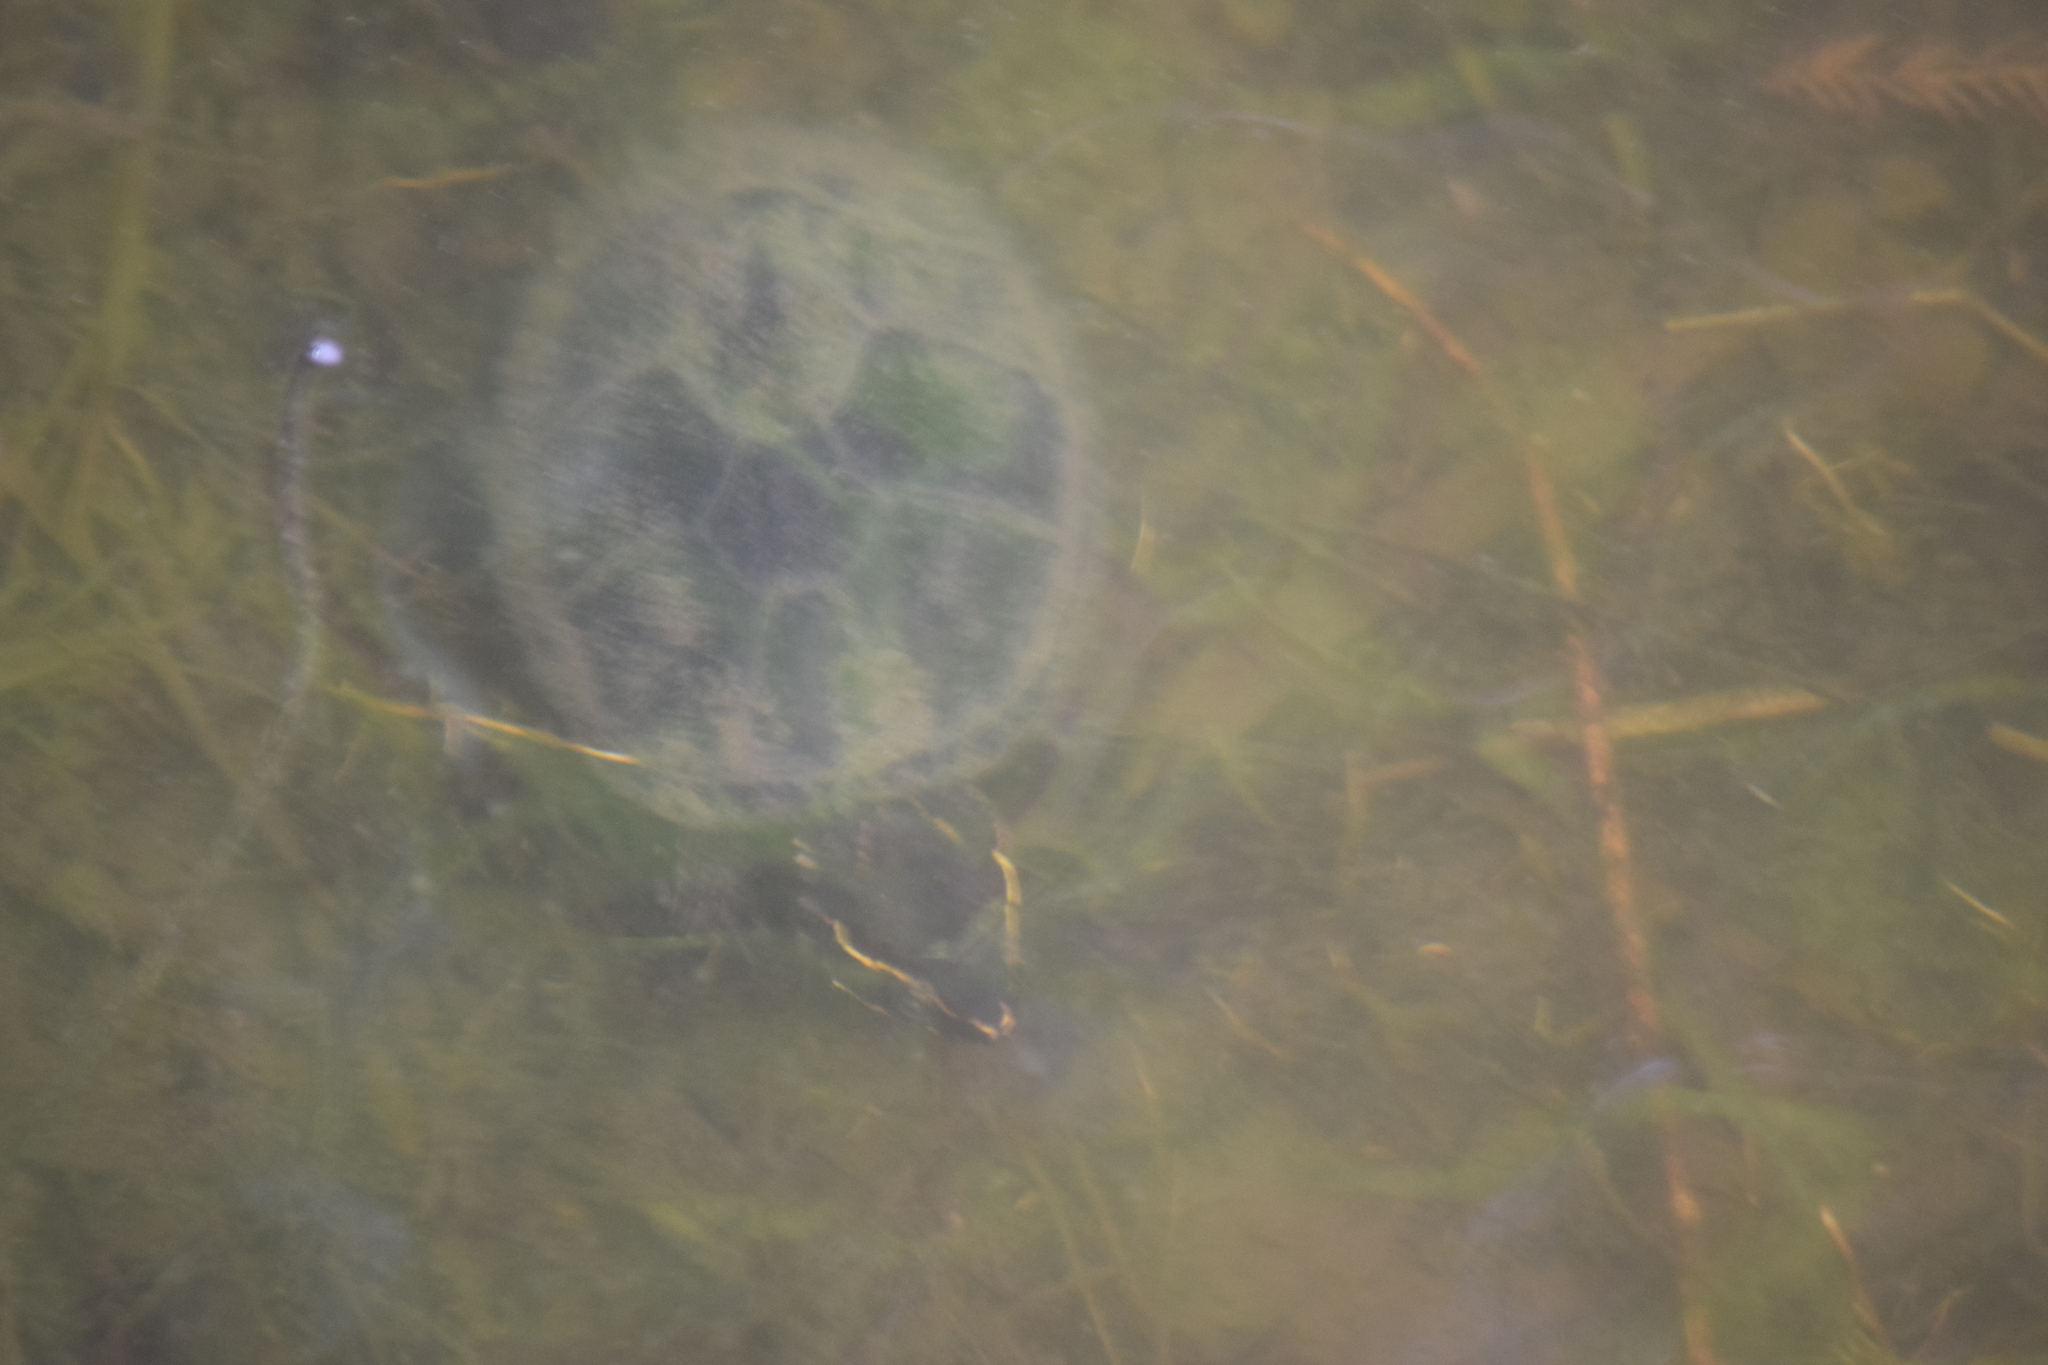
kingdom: Animalia
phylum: Chordata
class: Testudines
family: Kinosternidae
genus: Sternotherus
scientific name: Sternotherus odoratus
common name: Common musk turtle
